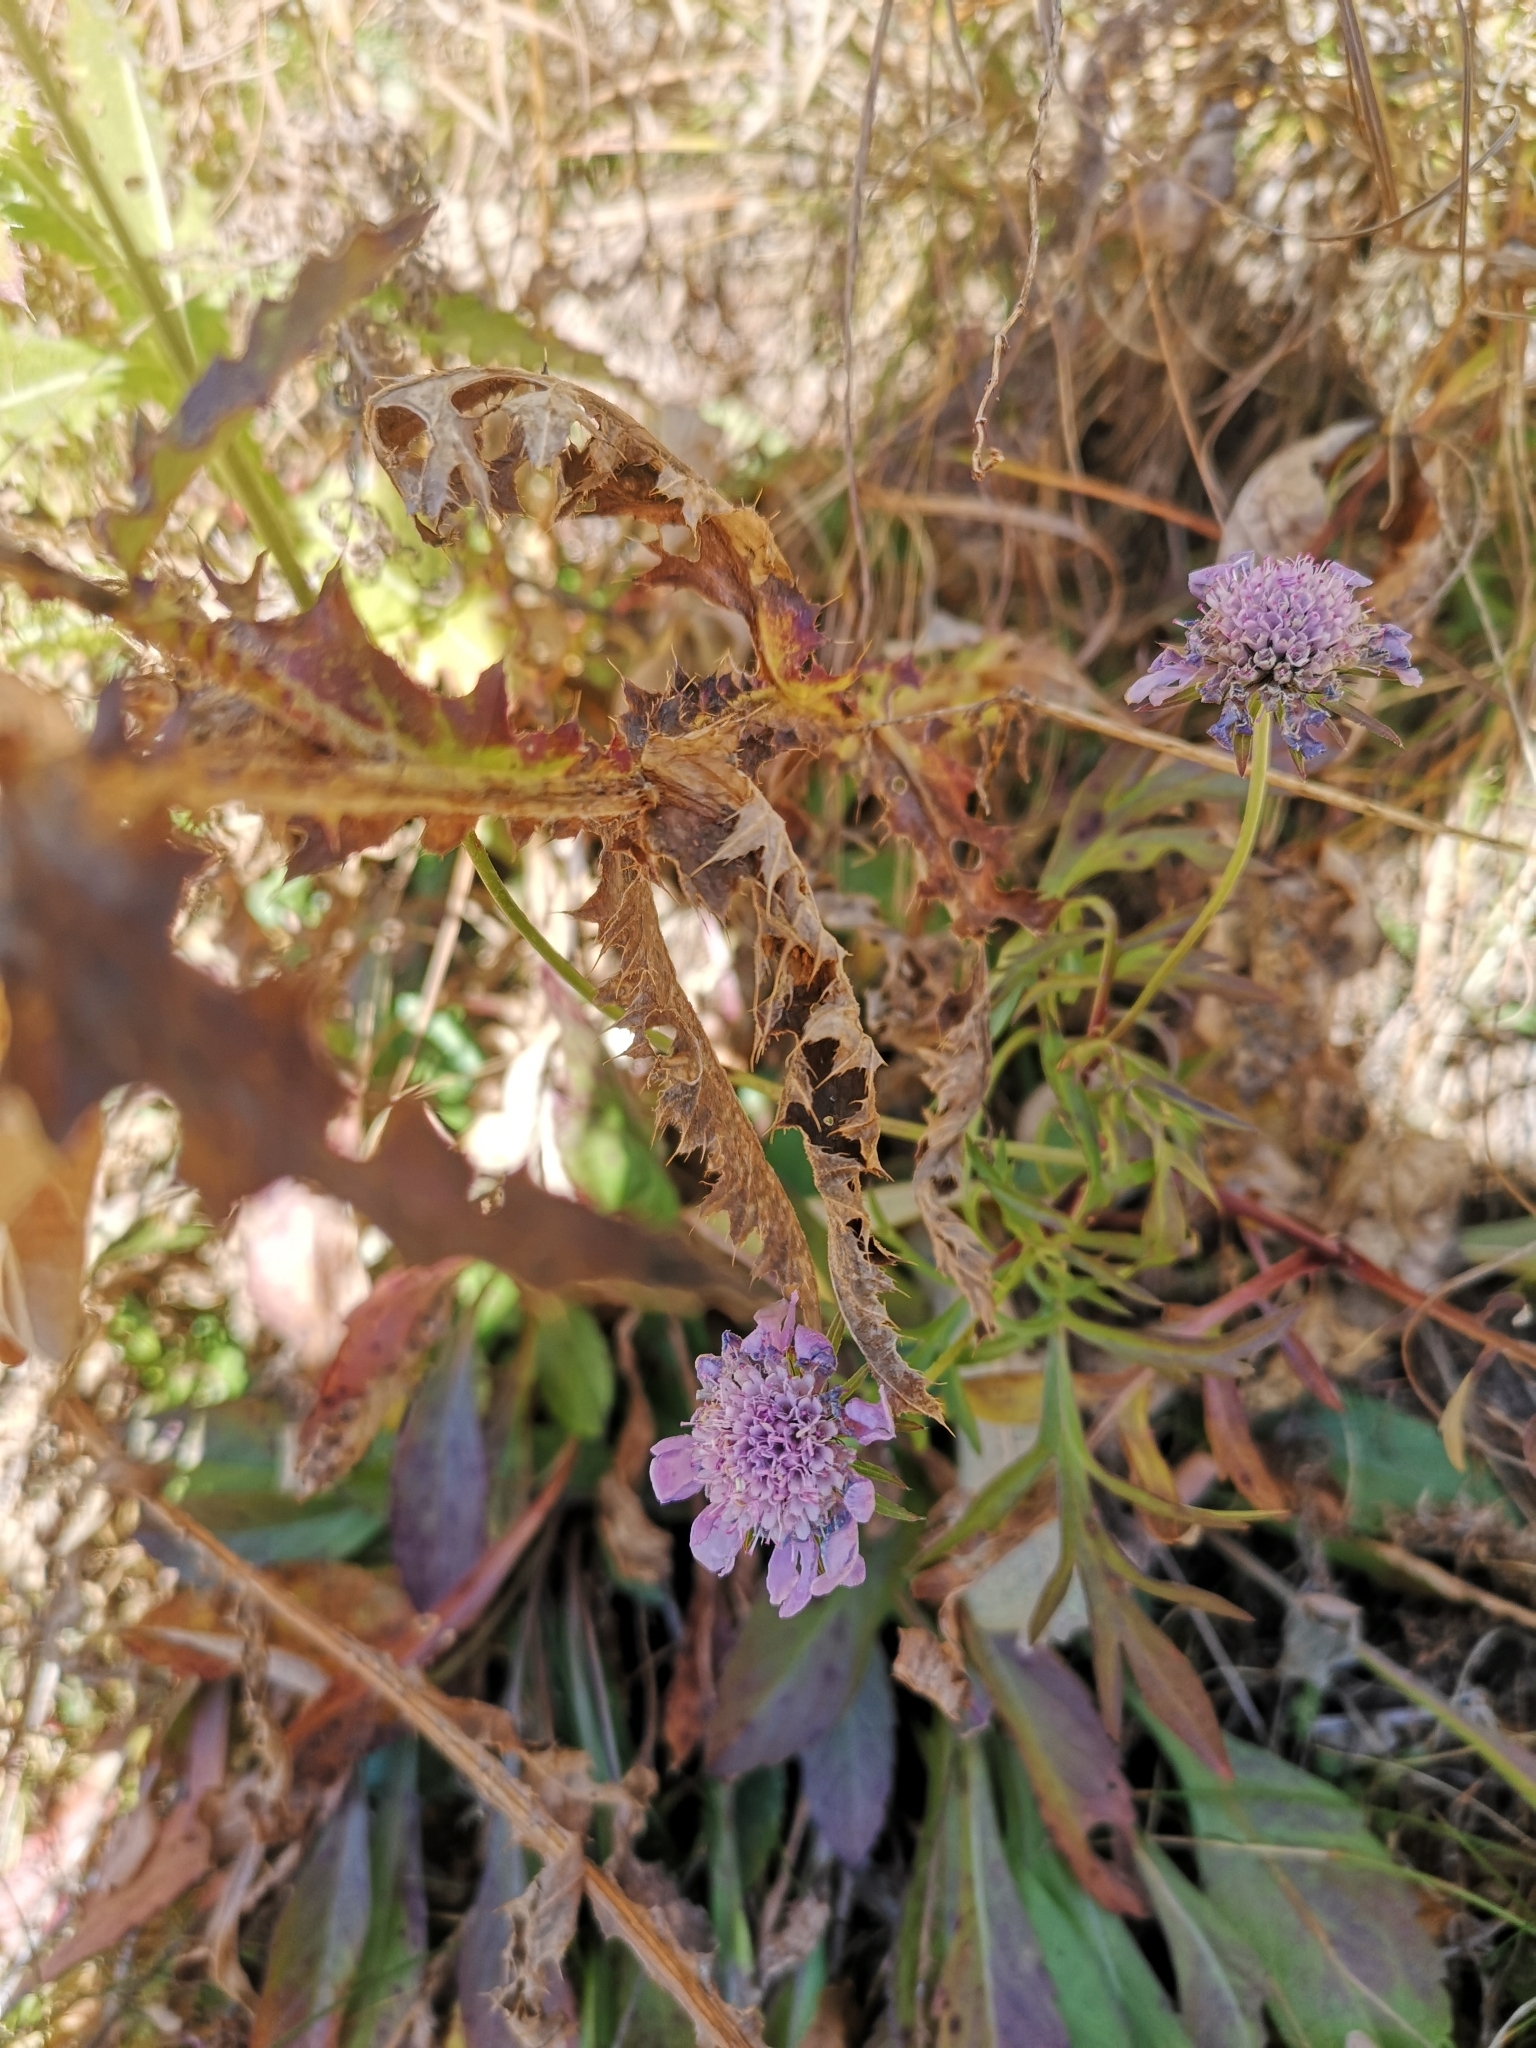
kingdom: Plantae
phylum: Tracheophyta
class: Magnoliopsida
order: Dipsacales
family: Caprifoliaceae
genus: Scabiosa
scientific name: Scabiosa lucida
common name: Shining scabious
